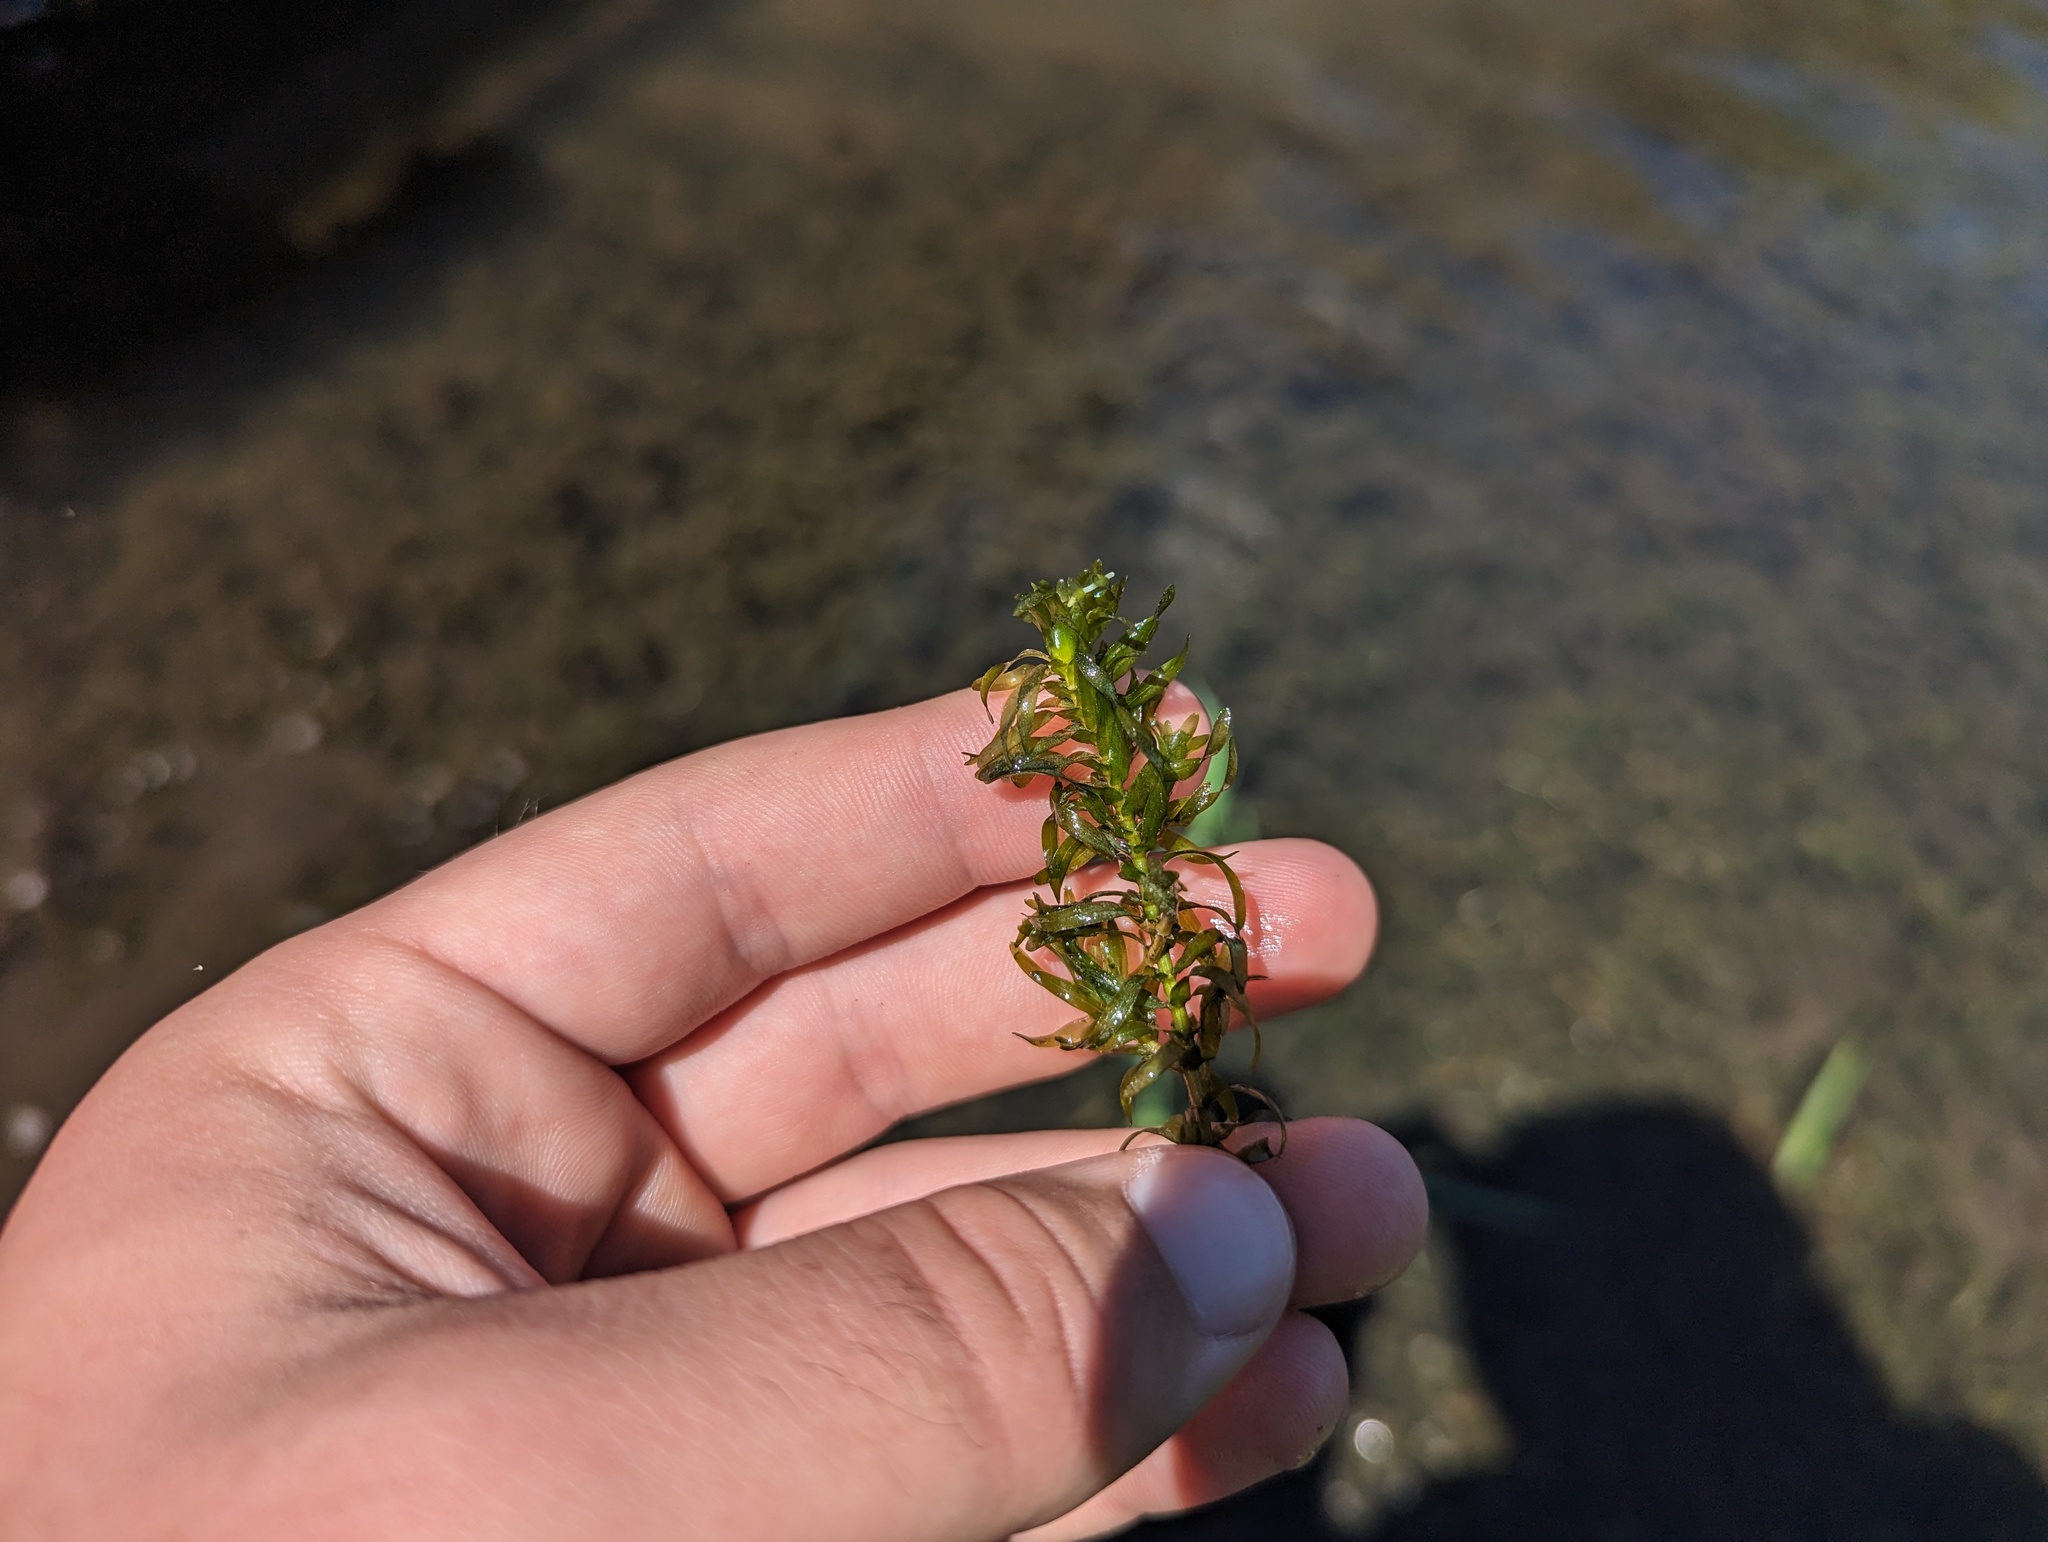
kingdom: Plantae
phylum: Tracheophyta
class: Liliopsida
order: Alismatales
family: Hydrocharitaceae
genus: Elodea
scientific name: Elodea nuttallii
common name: Nuttall's waterweed
